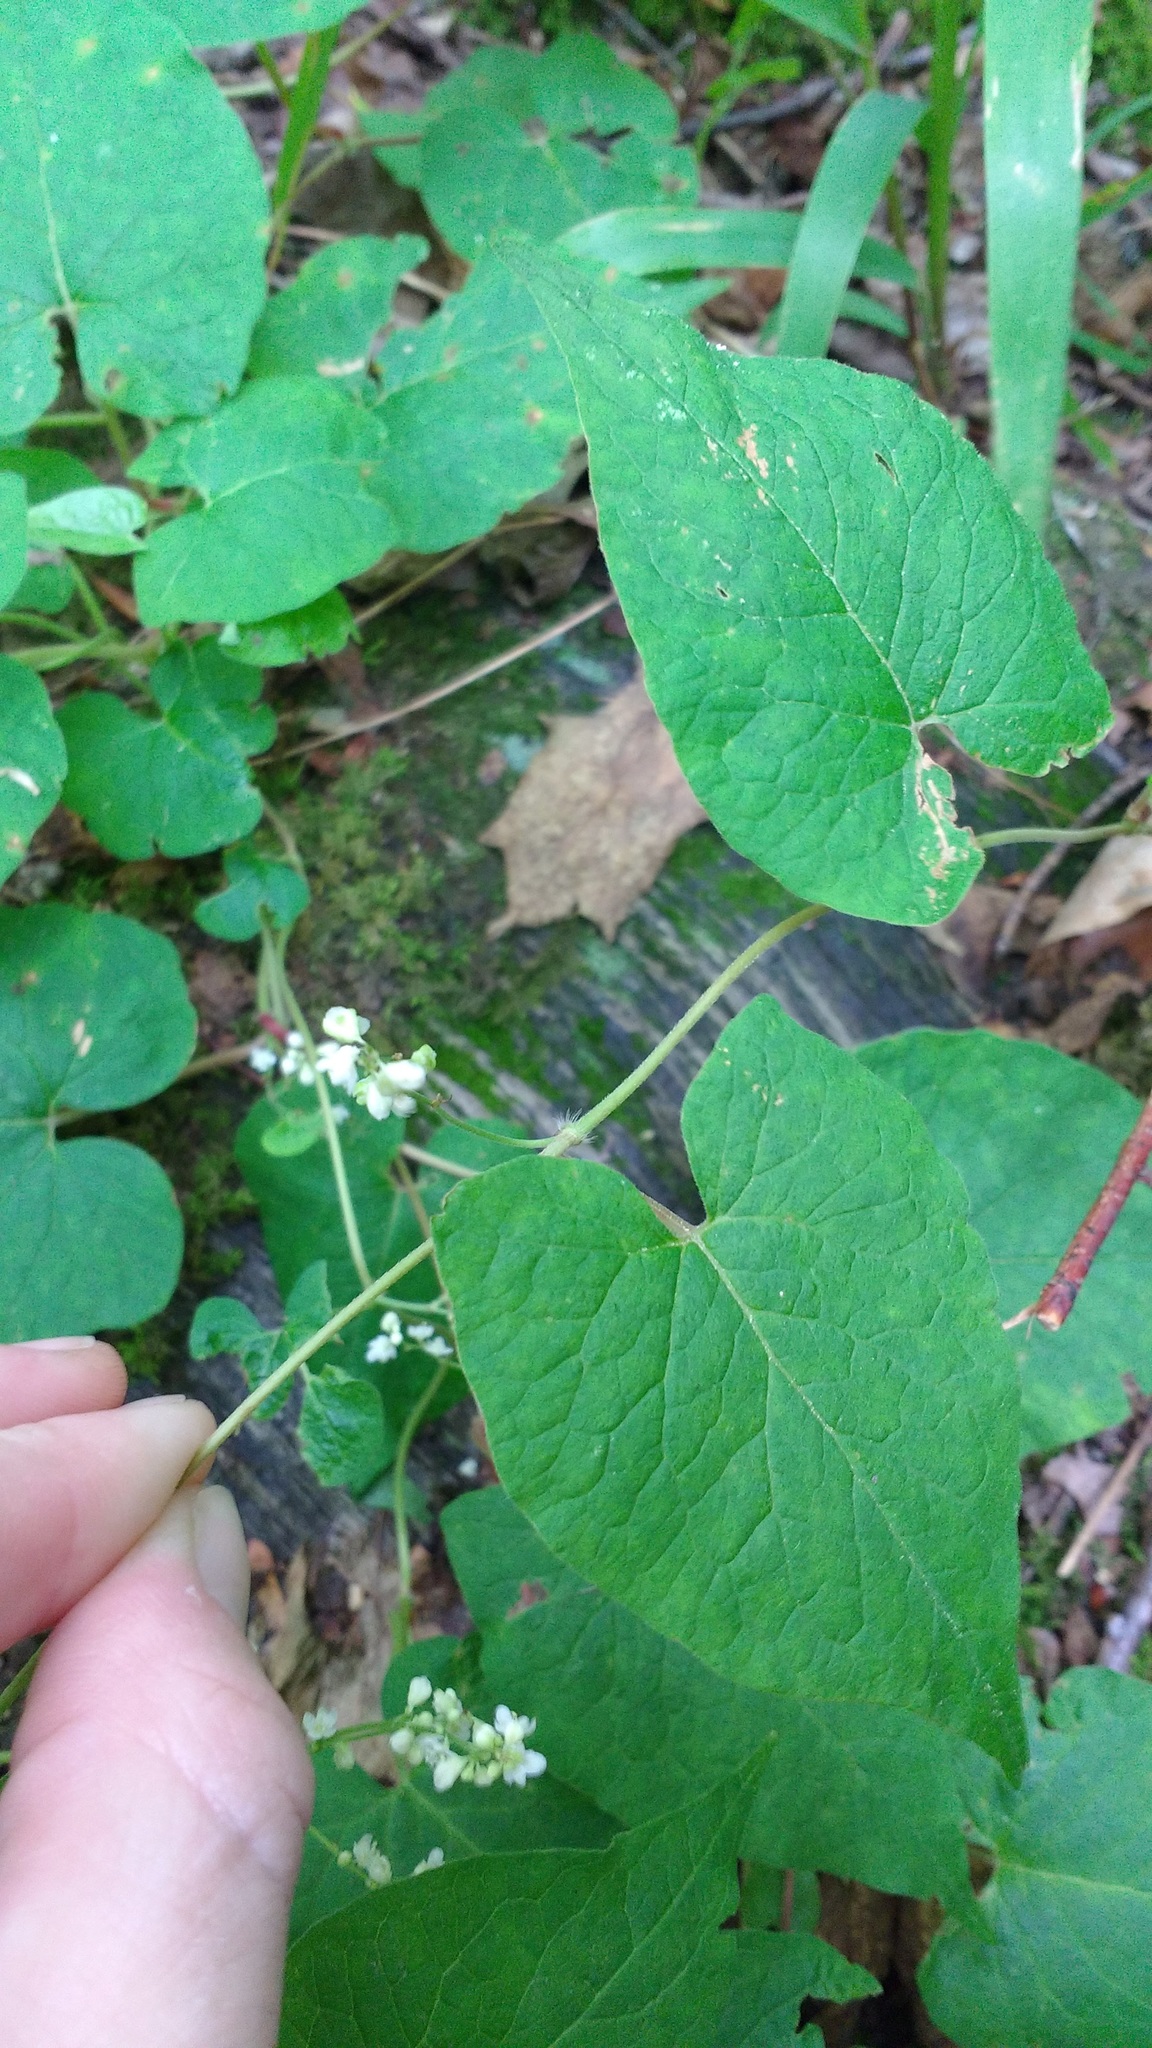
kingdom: Plantae
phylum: Tracheophyta
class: Magnoliopsida
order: Caryophyllales
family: Polygonaceae
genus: Parogonum
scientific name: Parogonum ciliinode
